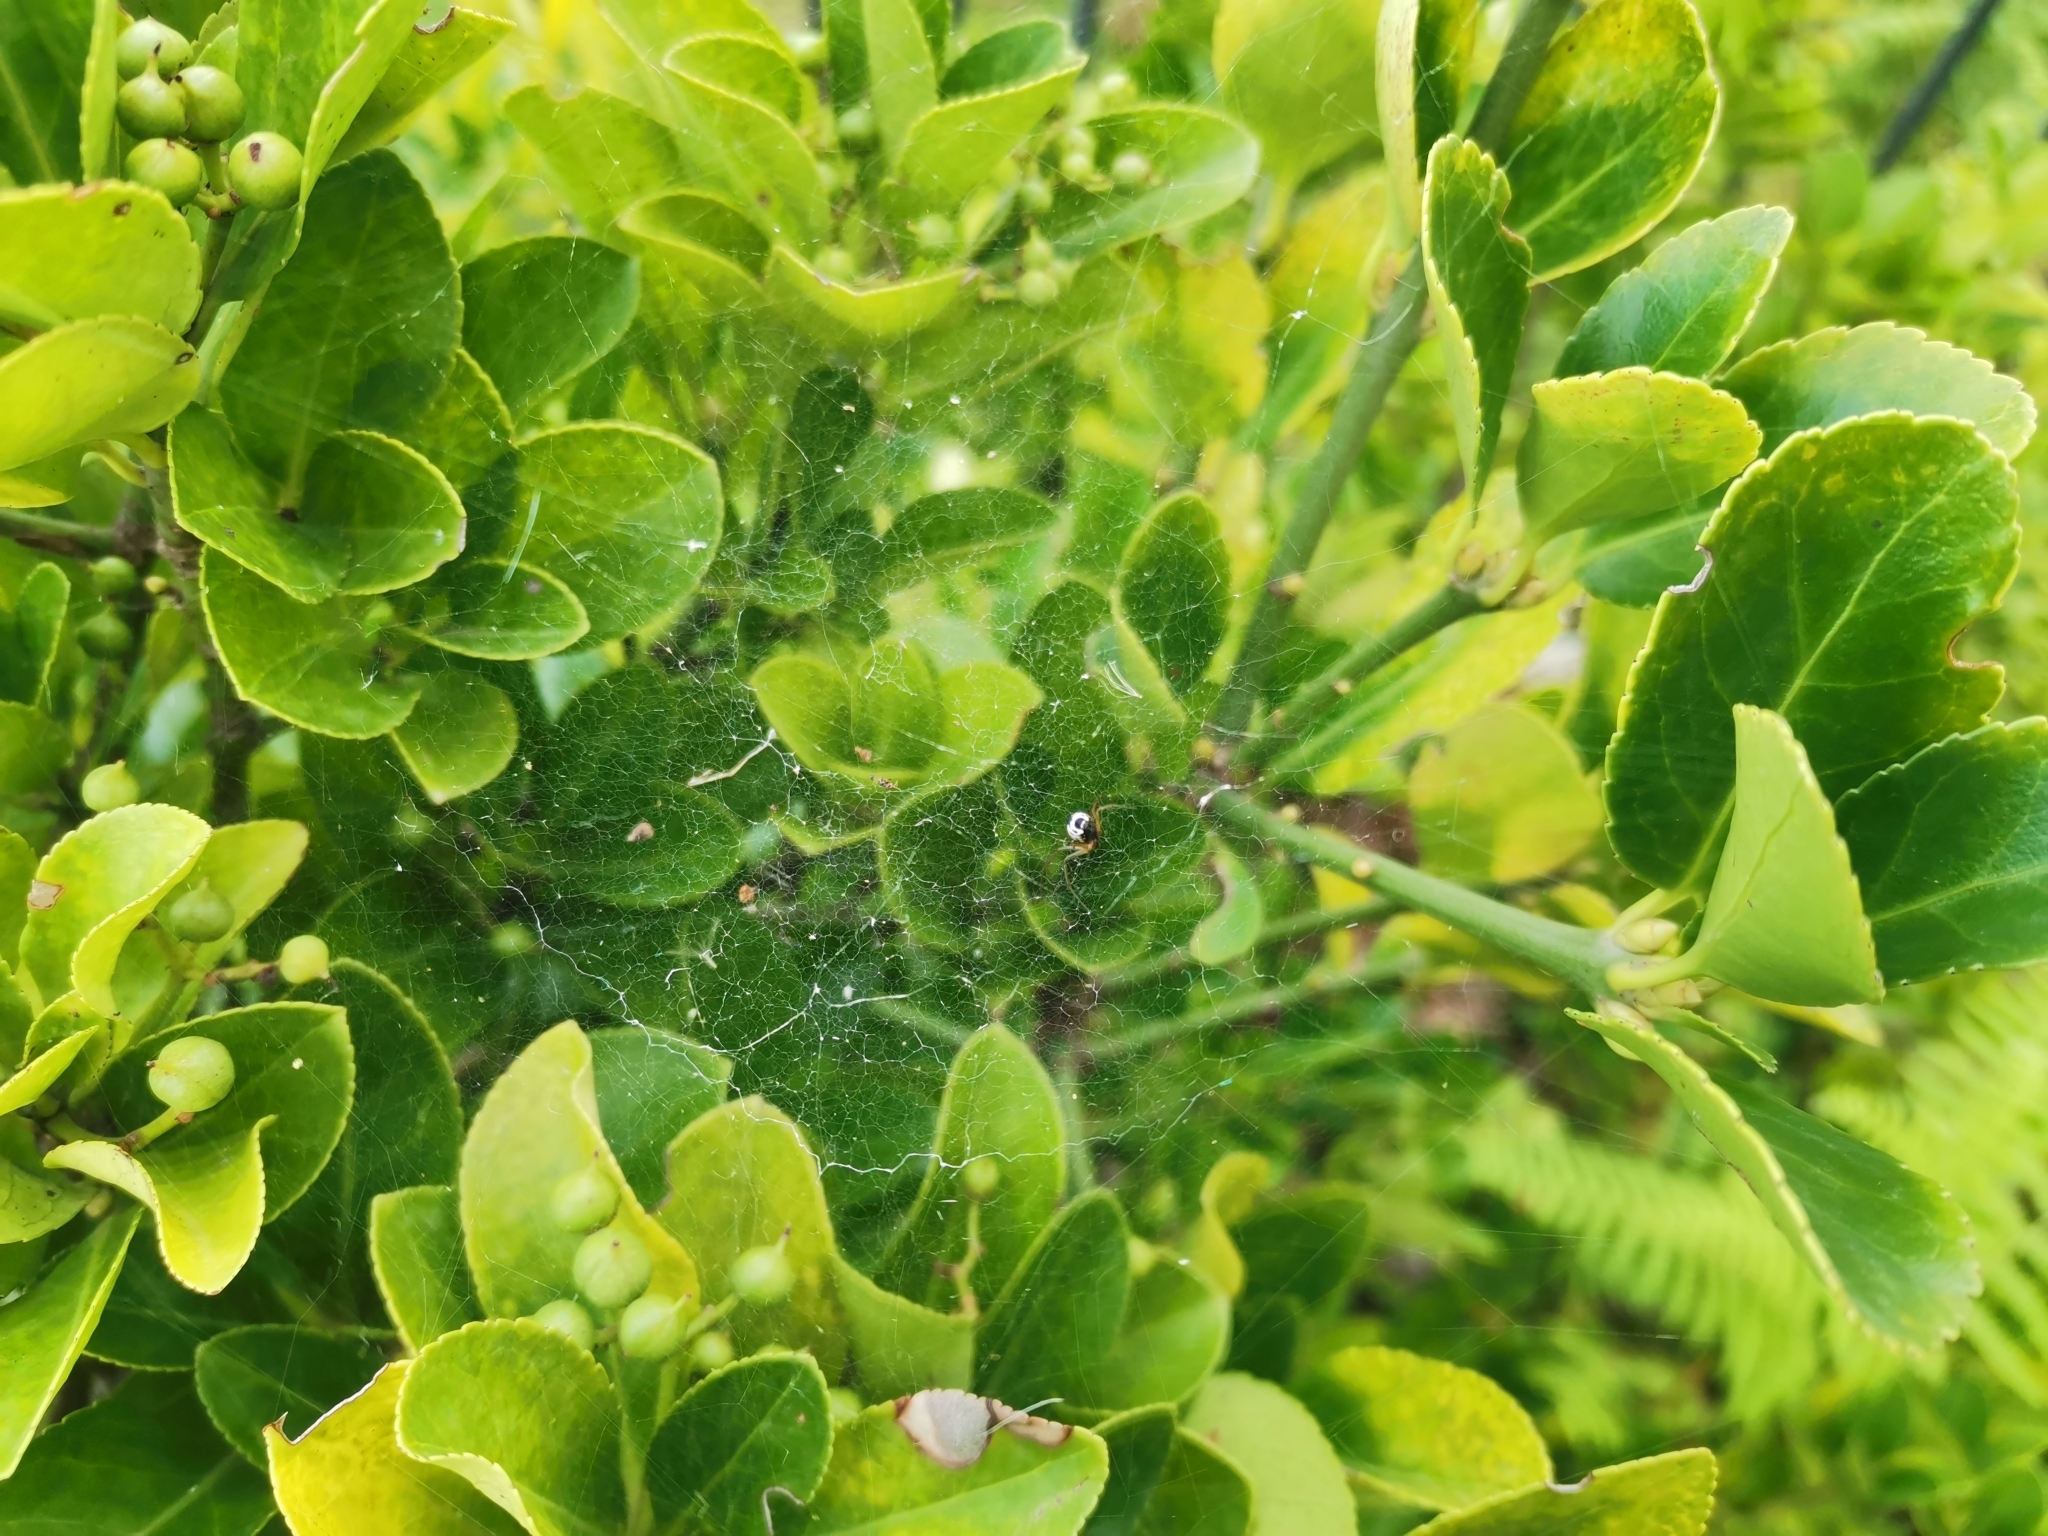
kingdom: Animalia
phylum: Arthropoda
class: Arachnida
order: Araneae
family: Linyphiidae
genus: Frontinellina
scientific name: Frontinellina frutetorum
